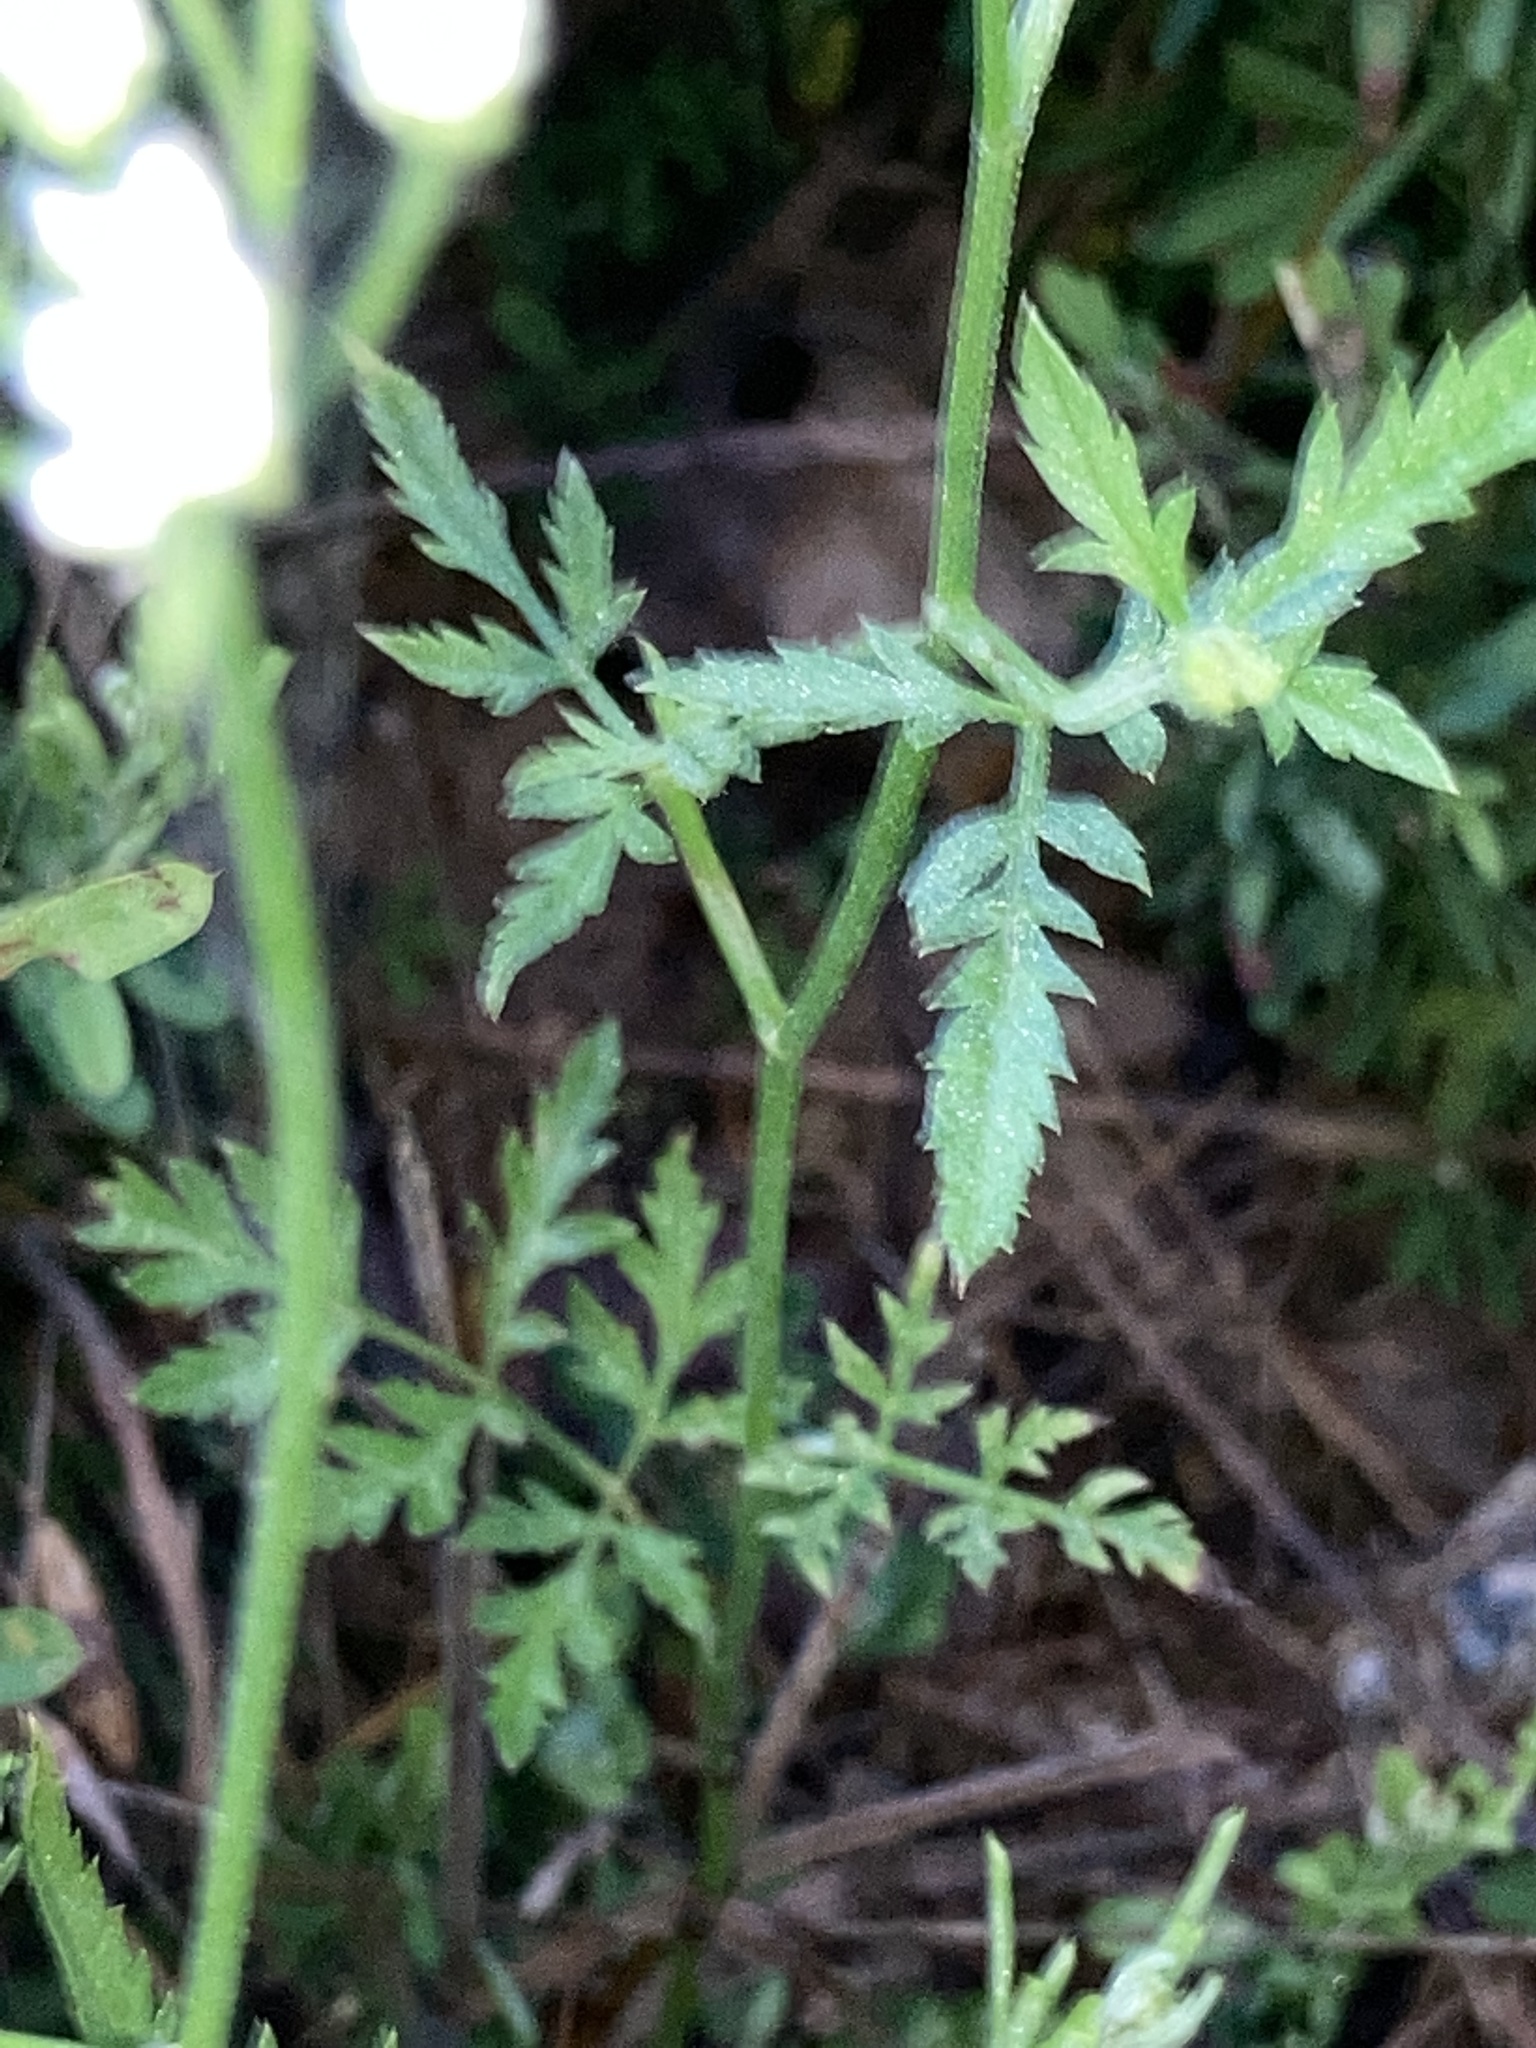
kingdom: Plantae
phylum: Tracheophyta
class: Magnoliopsida
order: Apiales
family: Apiaceae
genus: Torilis
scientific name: Torilis arvensis
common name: Spreading hedge-parsley
